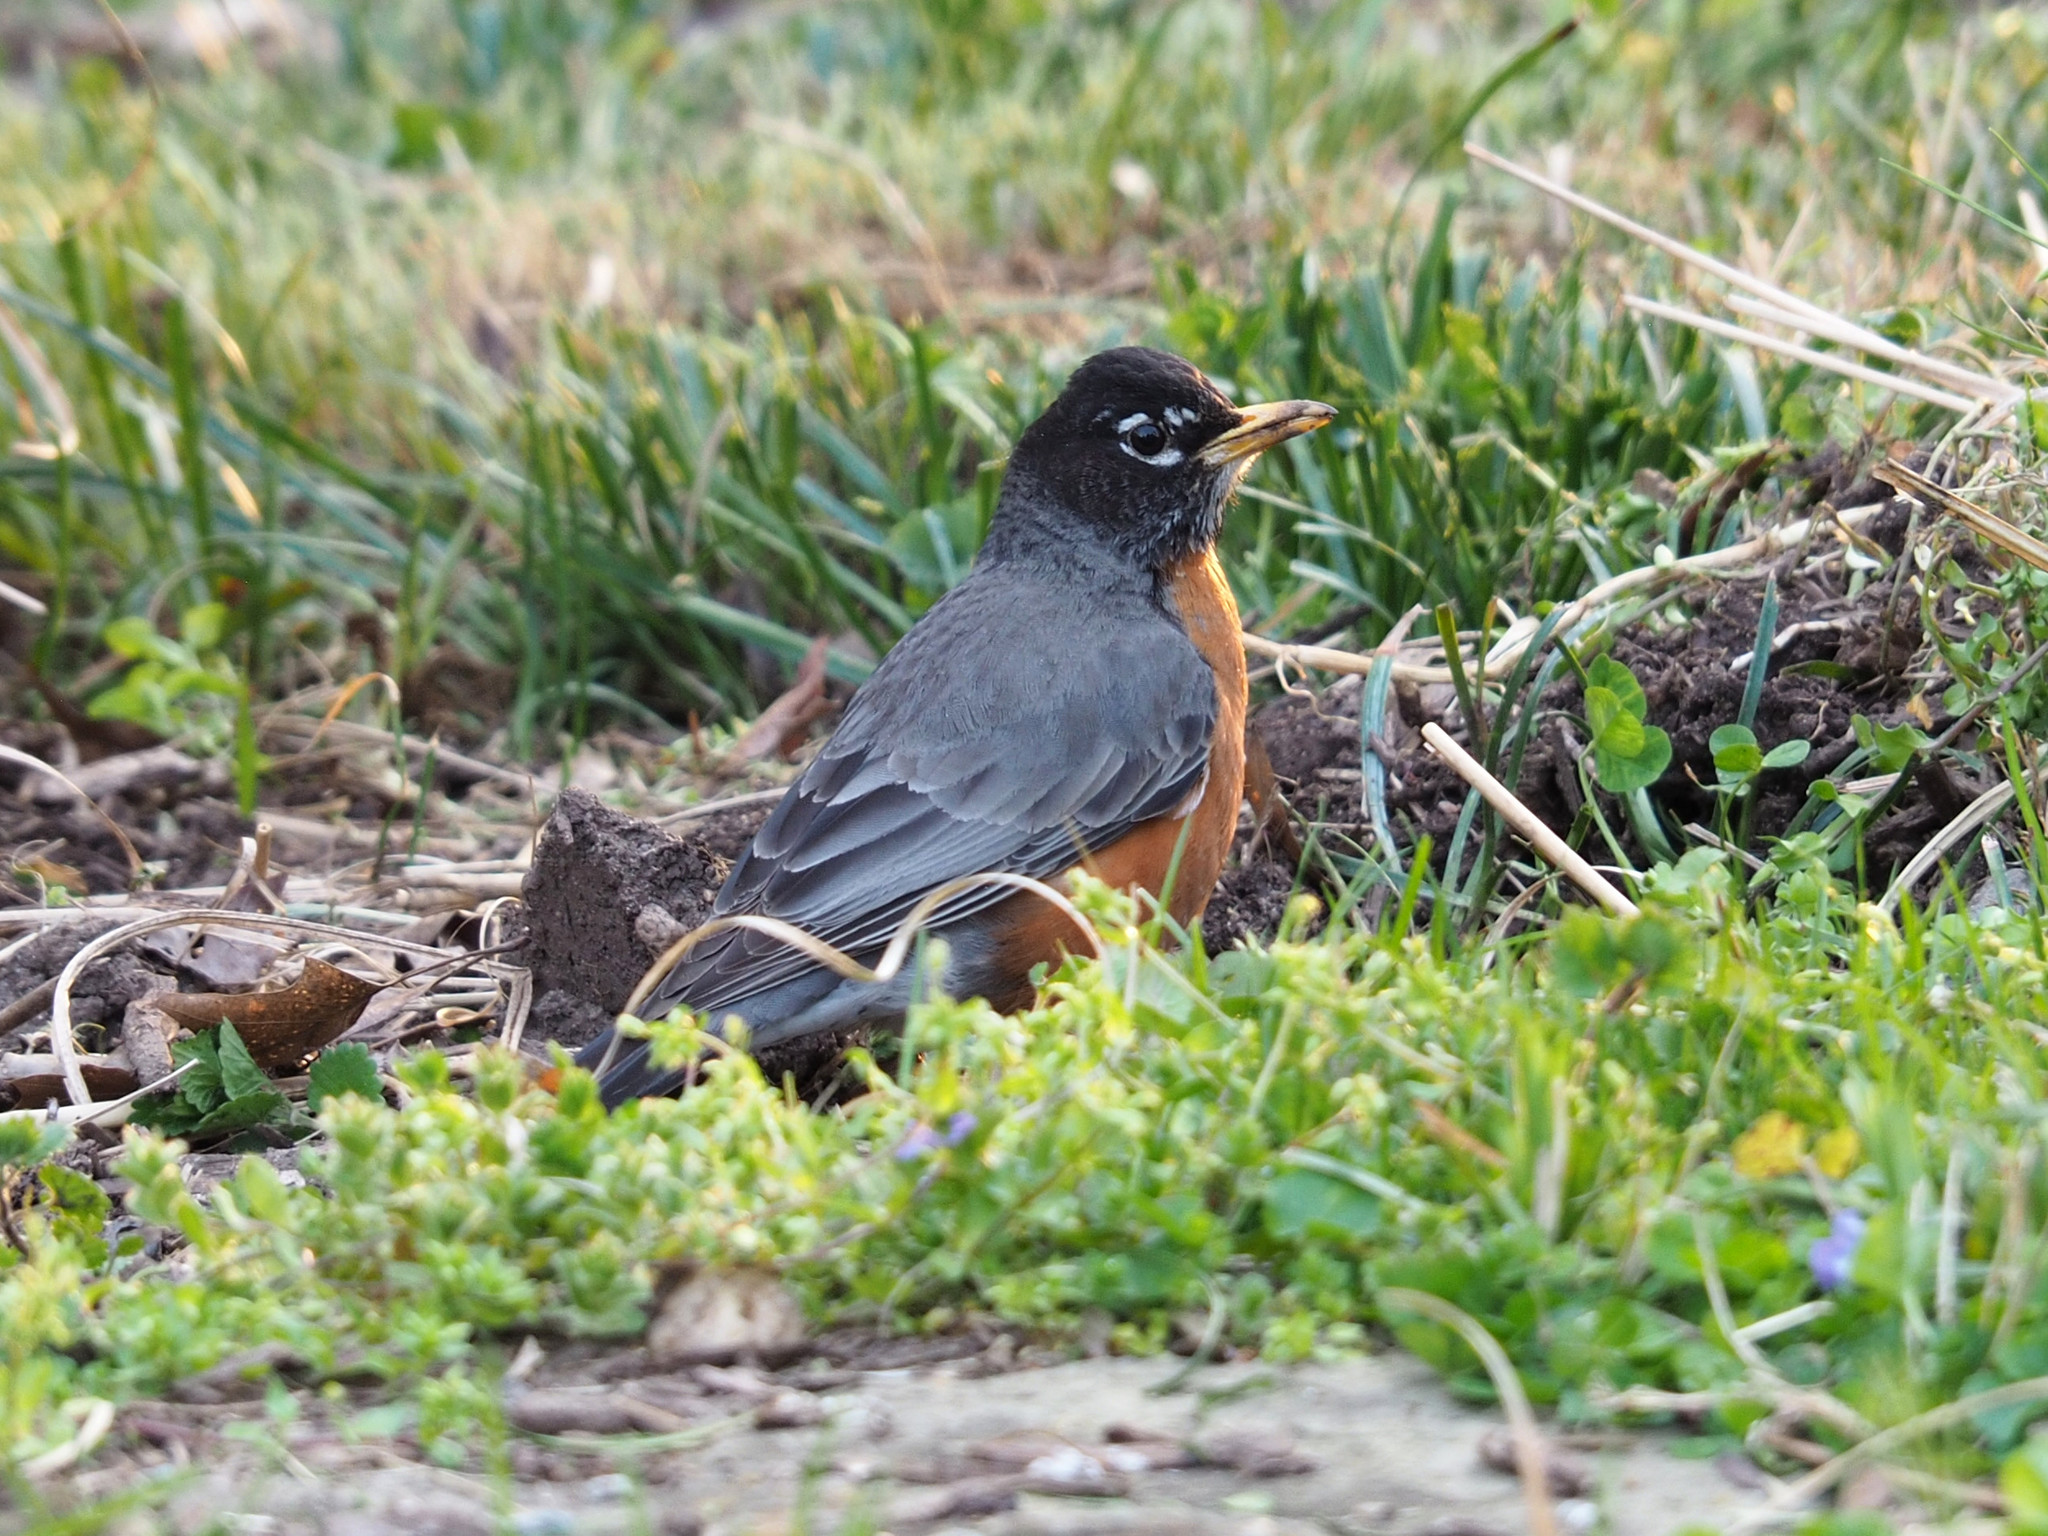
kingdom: Animalia
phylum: Chordata
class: Aves
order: Passeriformes
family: Turdidae
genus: Turdus
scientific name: Turdus migratorius
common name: American robin
